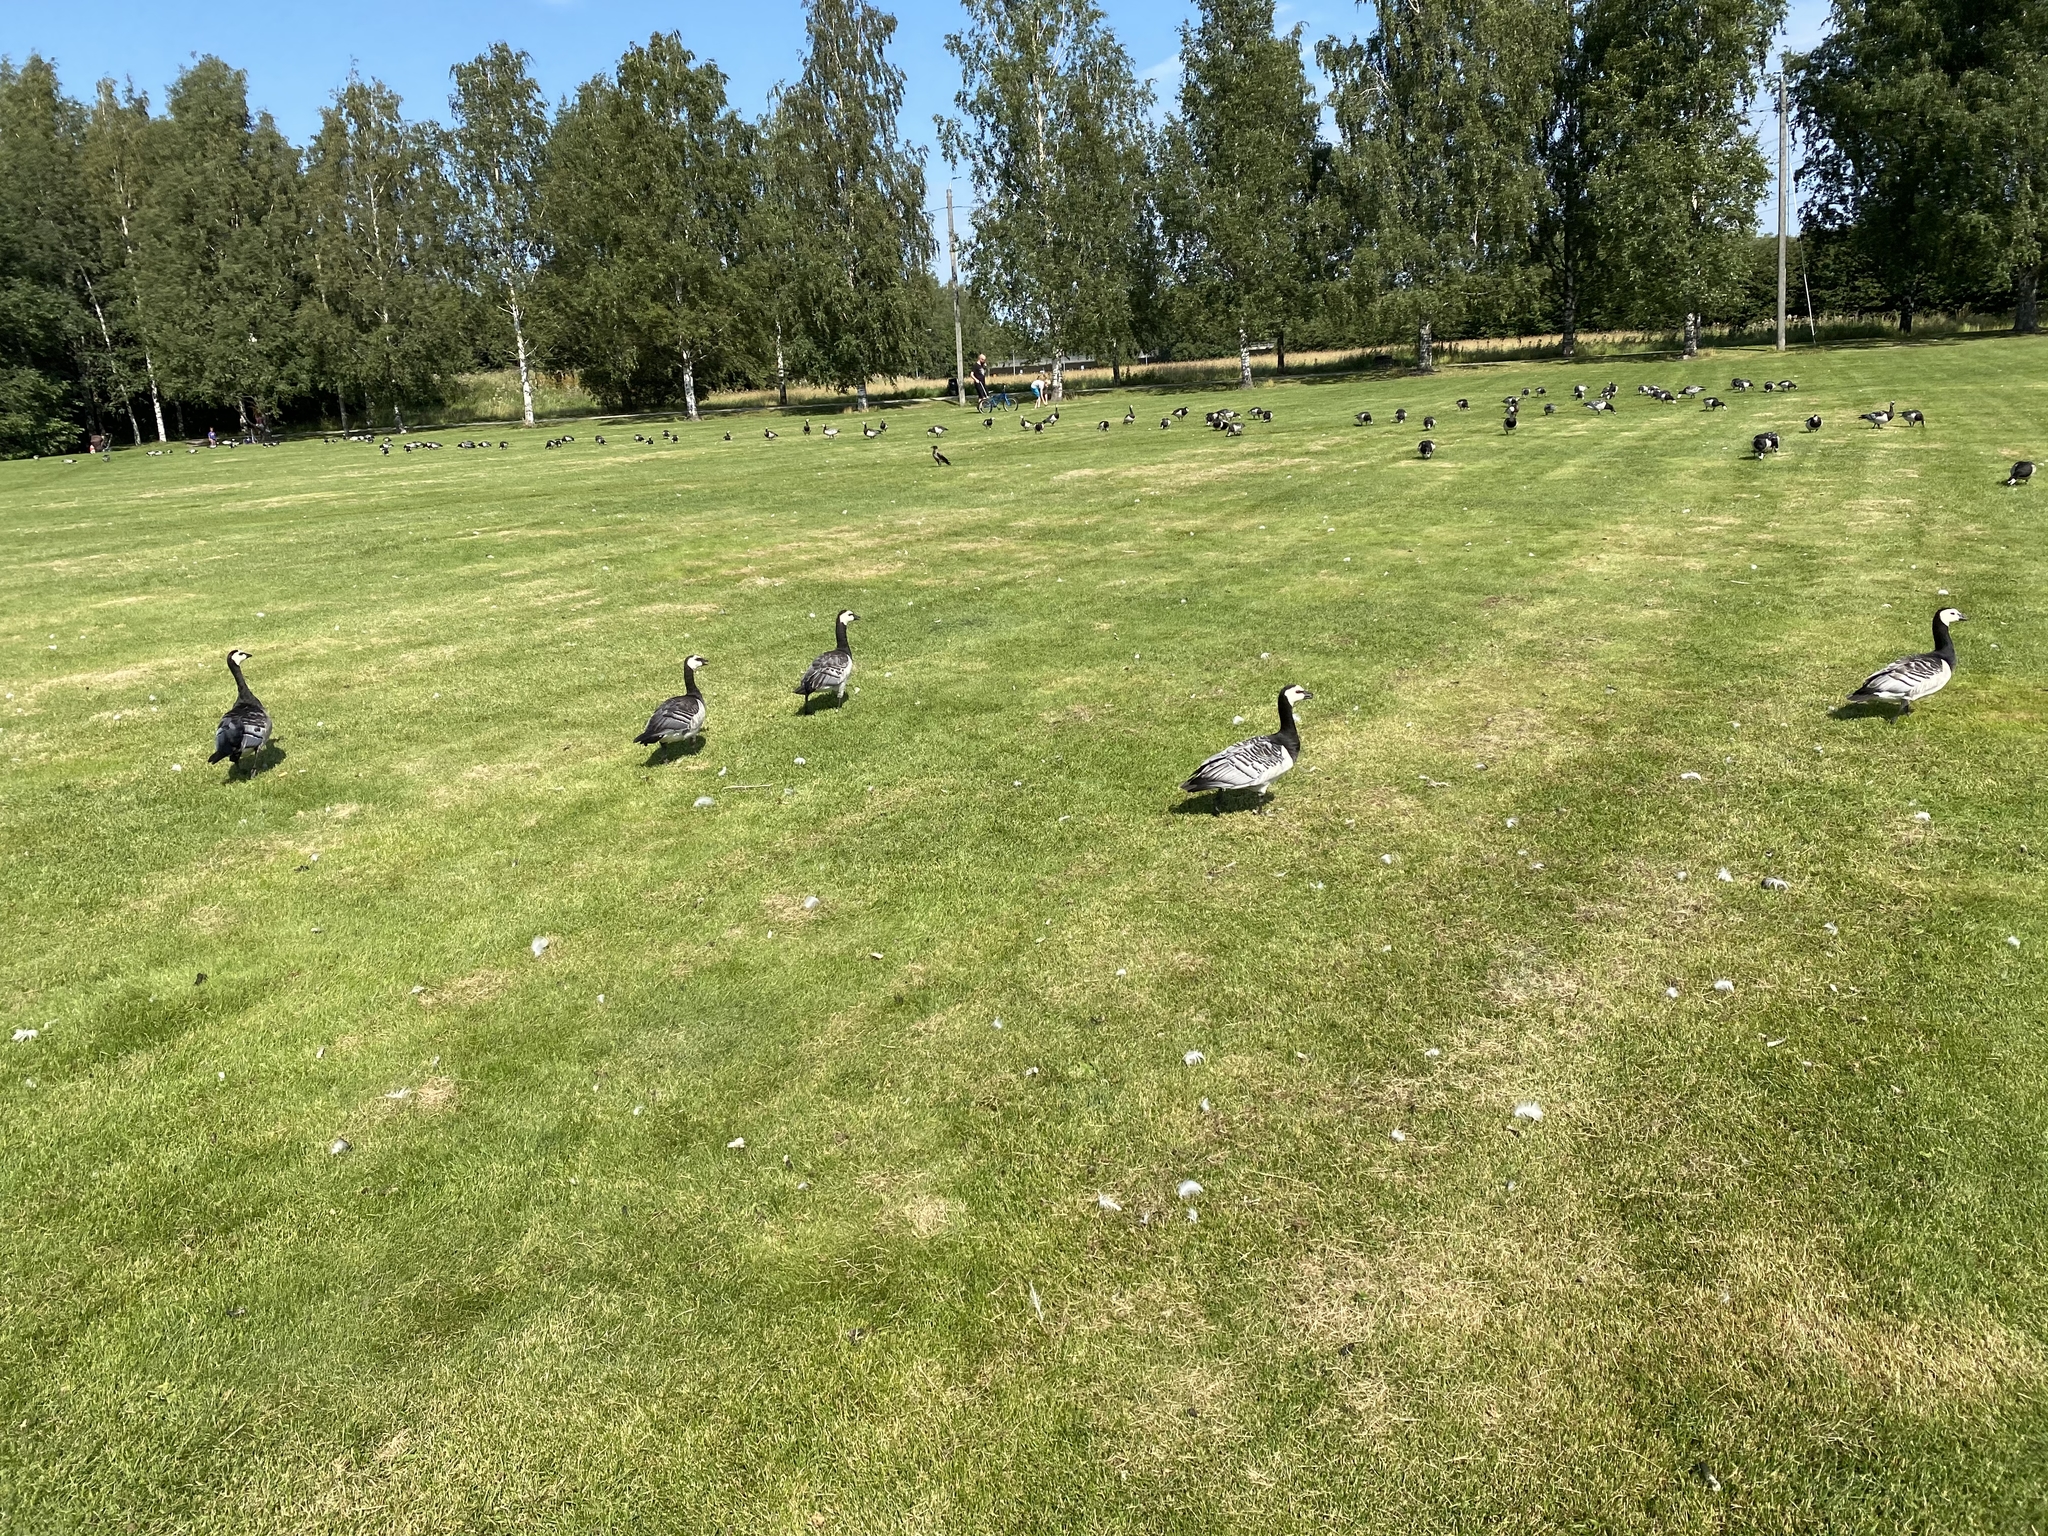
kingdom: Animalia
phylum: Chordata
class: Aves
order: Anseriformes
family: Anatidae
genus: Branta
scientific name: Branta leucopsis
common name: Barnacle goose
